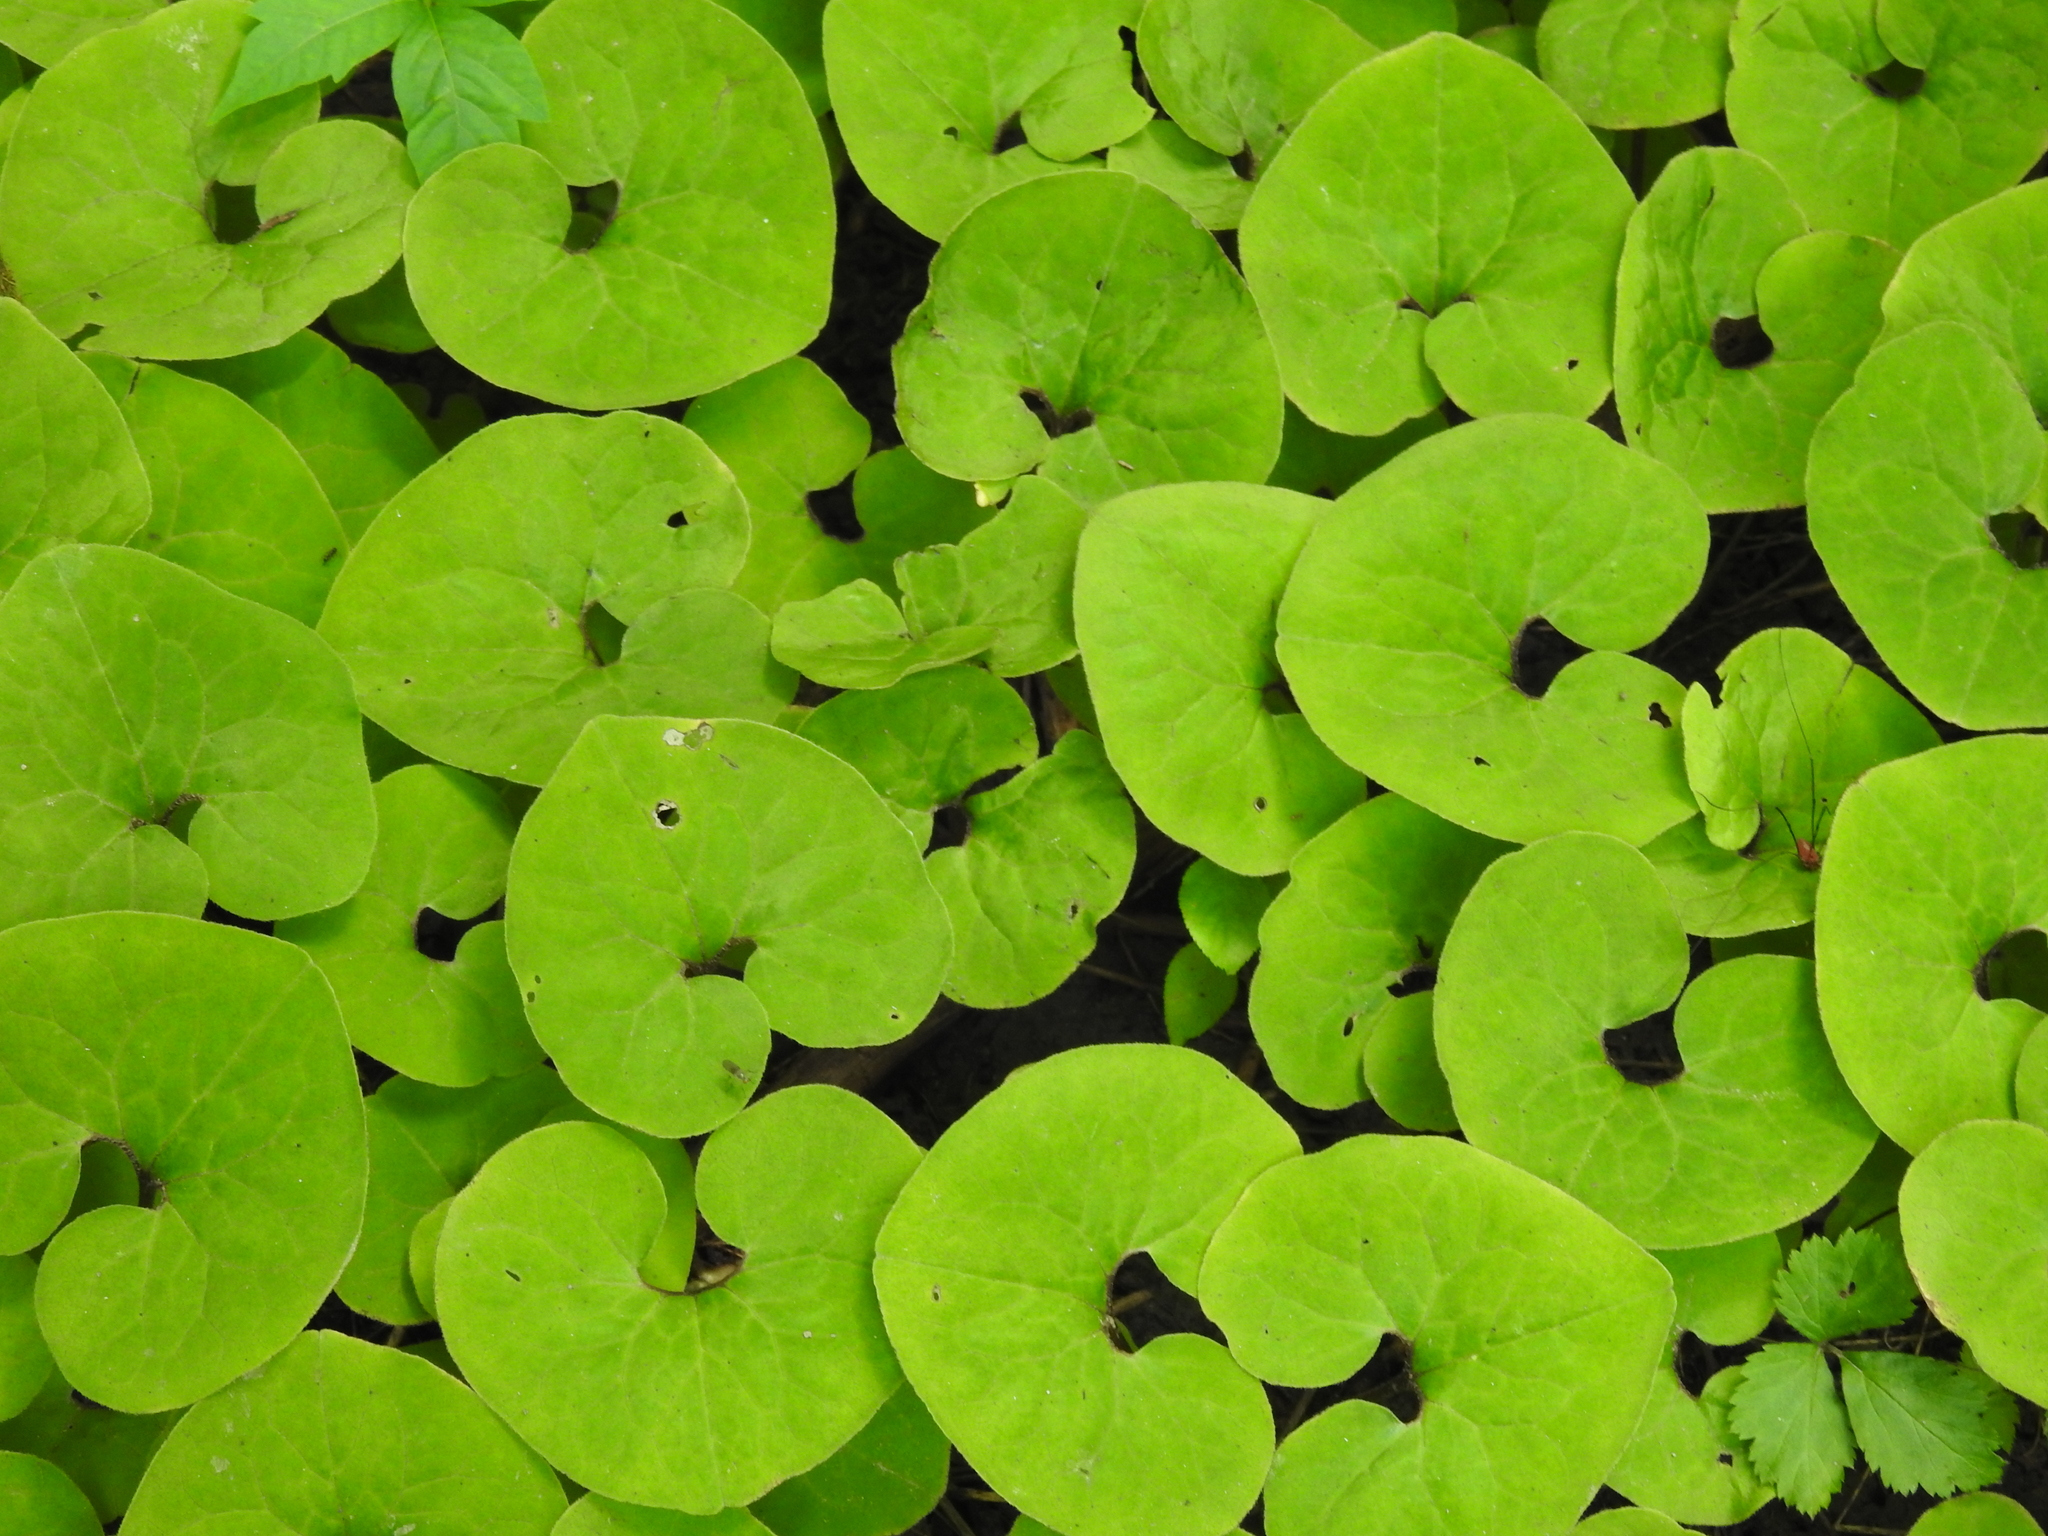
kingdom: Plantae
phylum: Tracheophyta
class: Magnoliopsida
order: Piperales
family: Aristolochiaceae
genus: Asarum
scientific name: Asarum canadense
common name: Wild ginger
